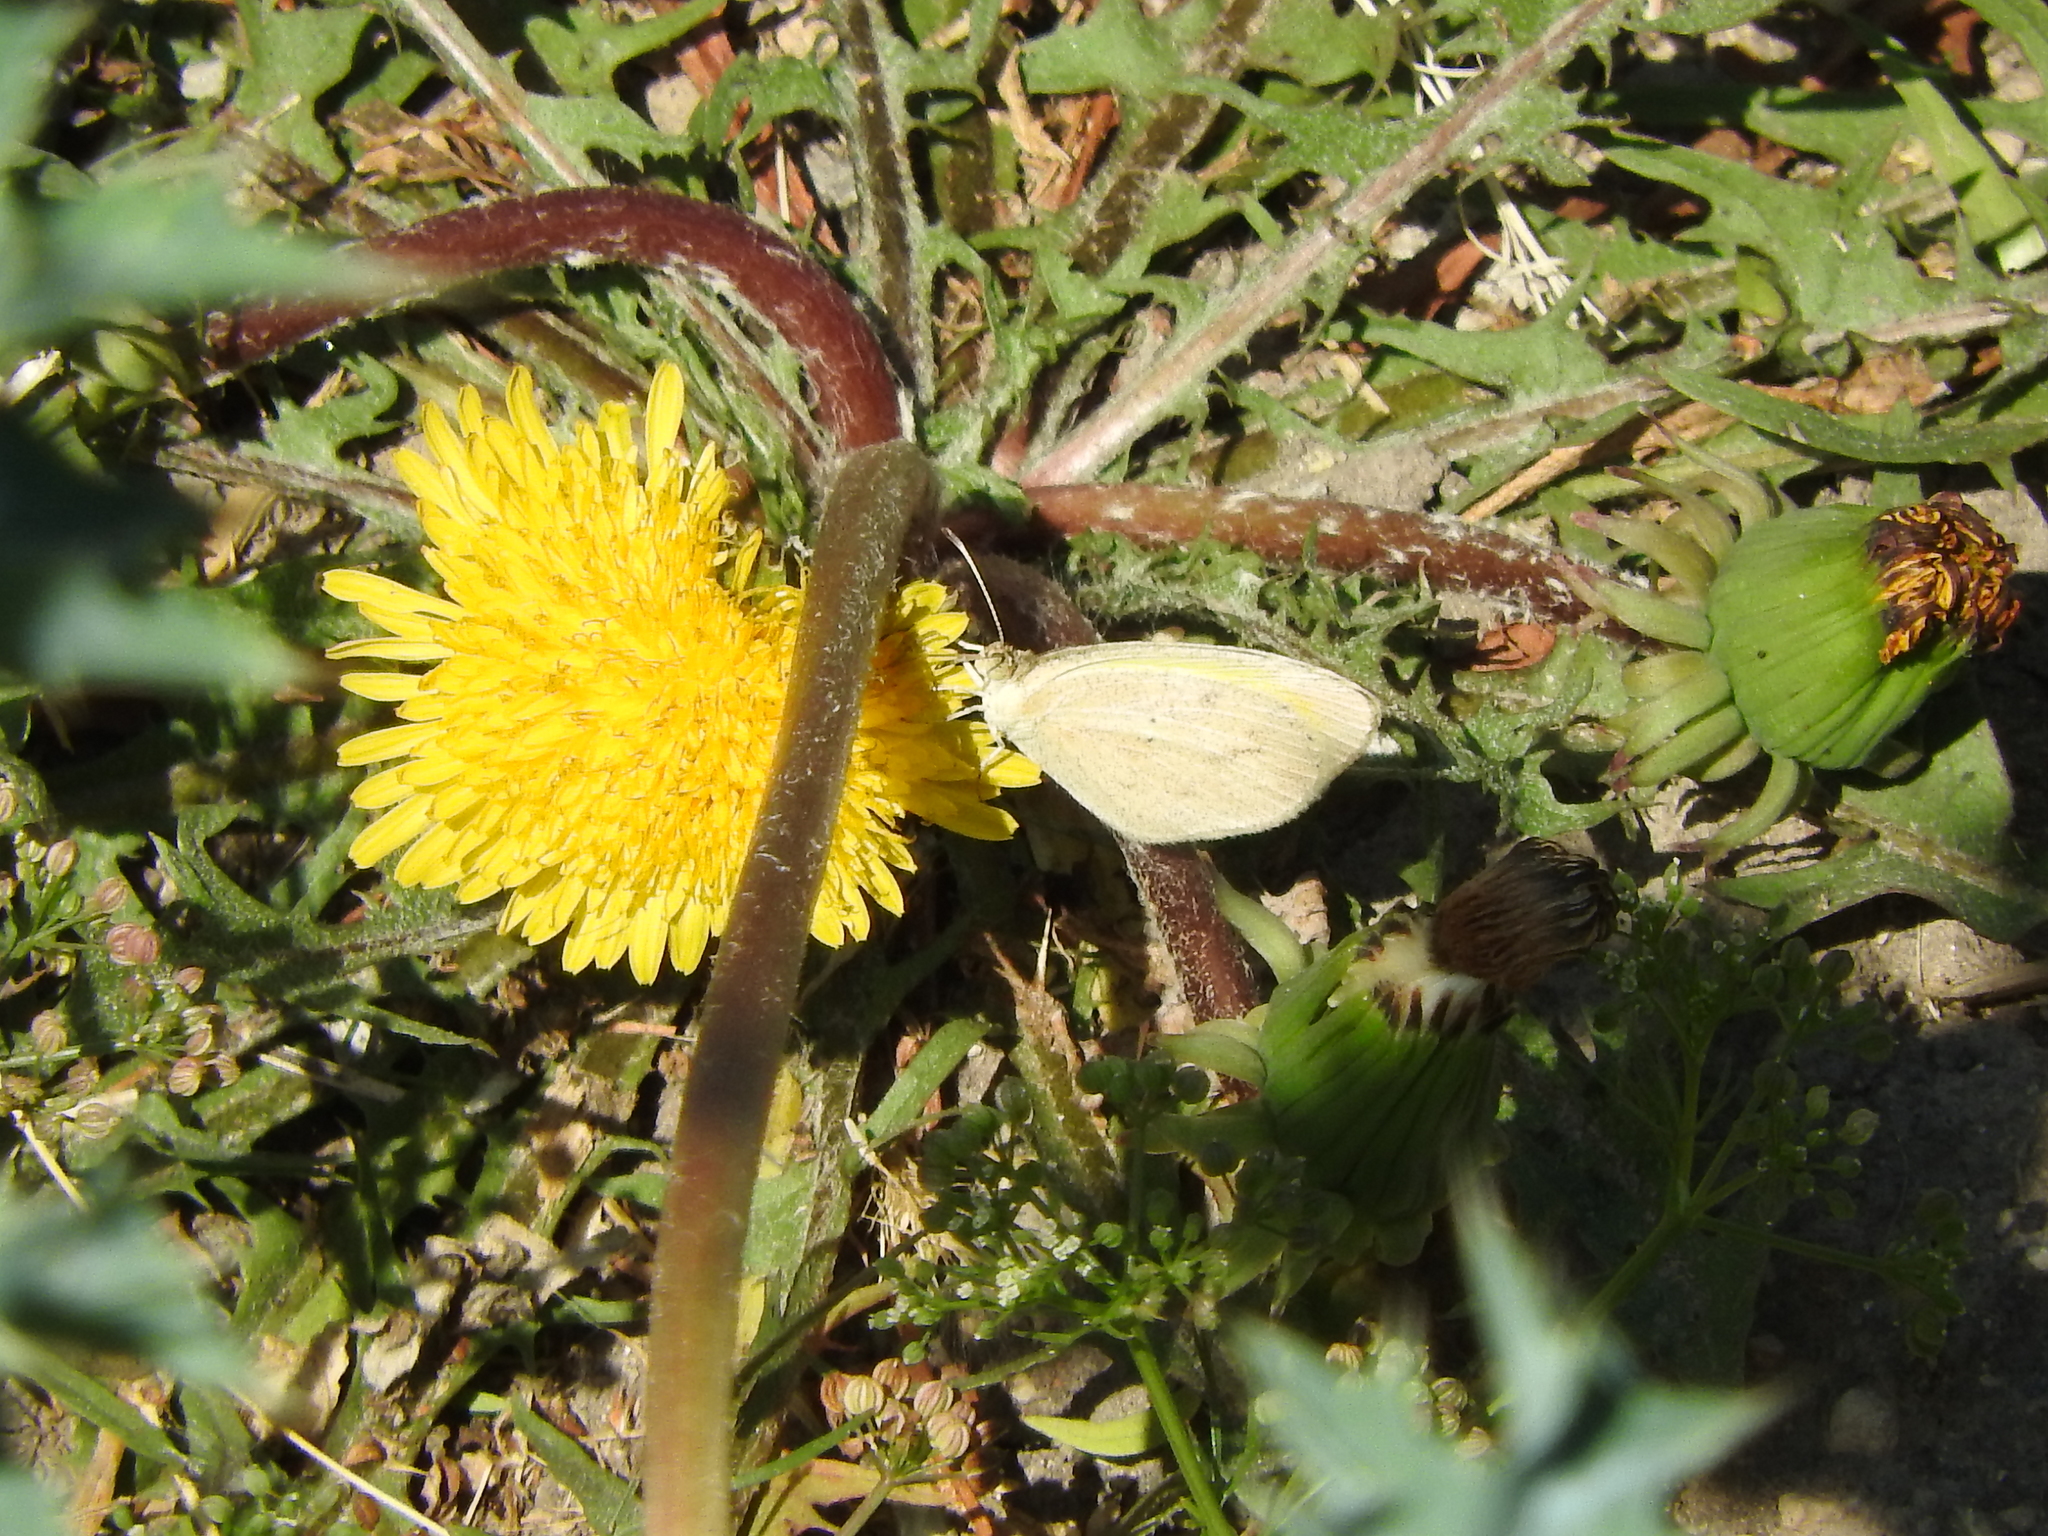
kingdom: Animalia
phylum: Arthropoda
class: Insecta
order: Lepidoptera
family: Pieridae
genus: Eurema
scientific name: Eurema daira
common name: Barred sulphur
